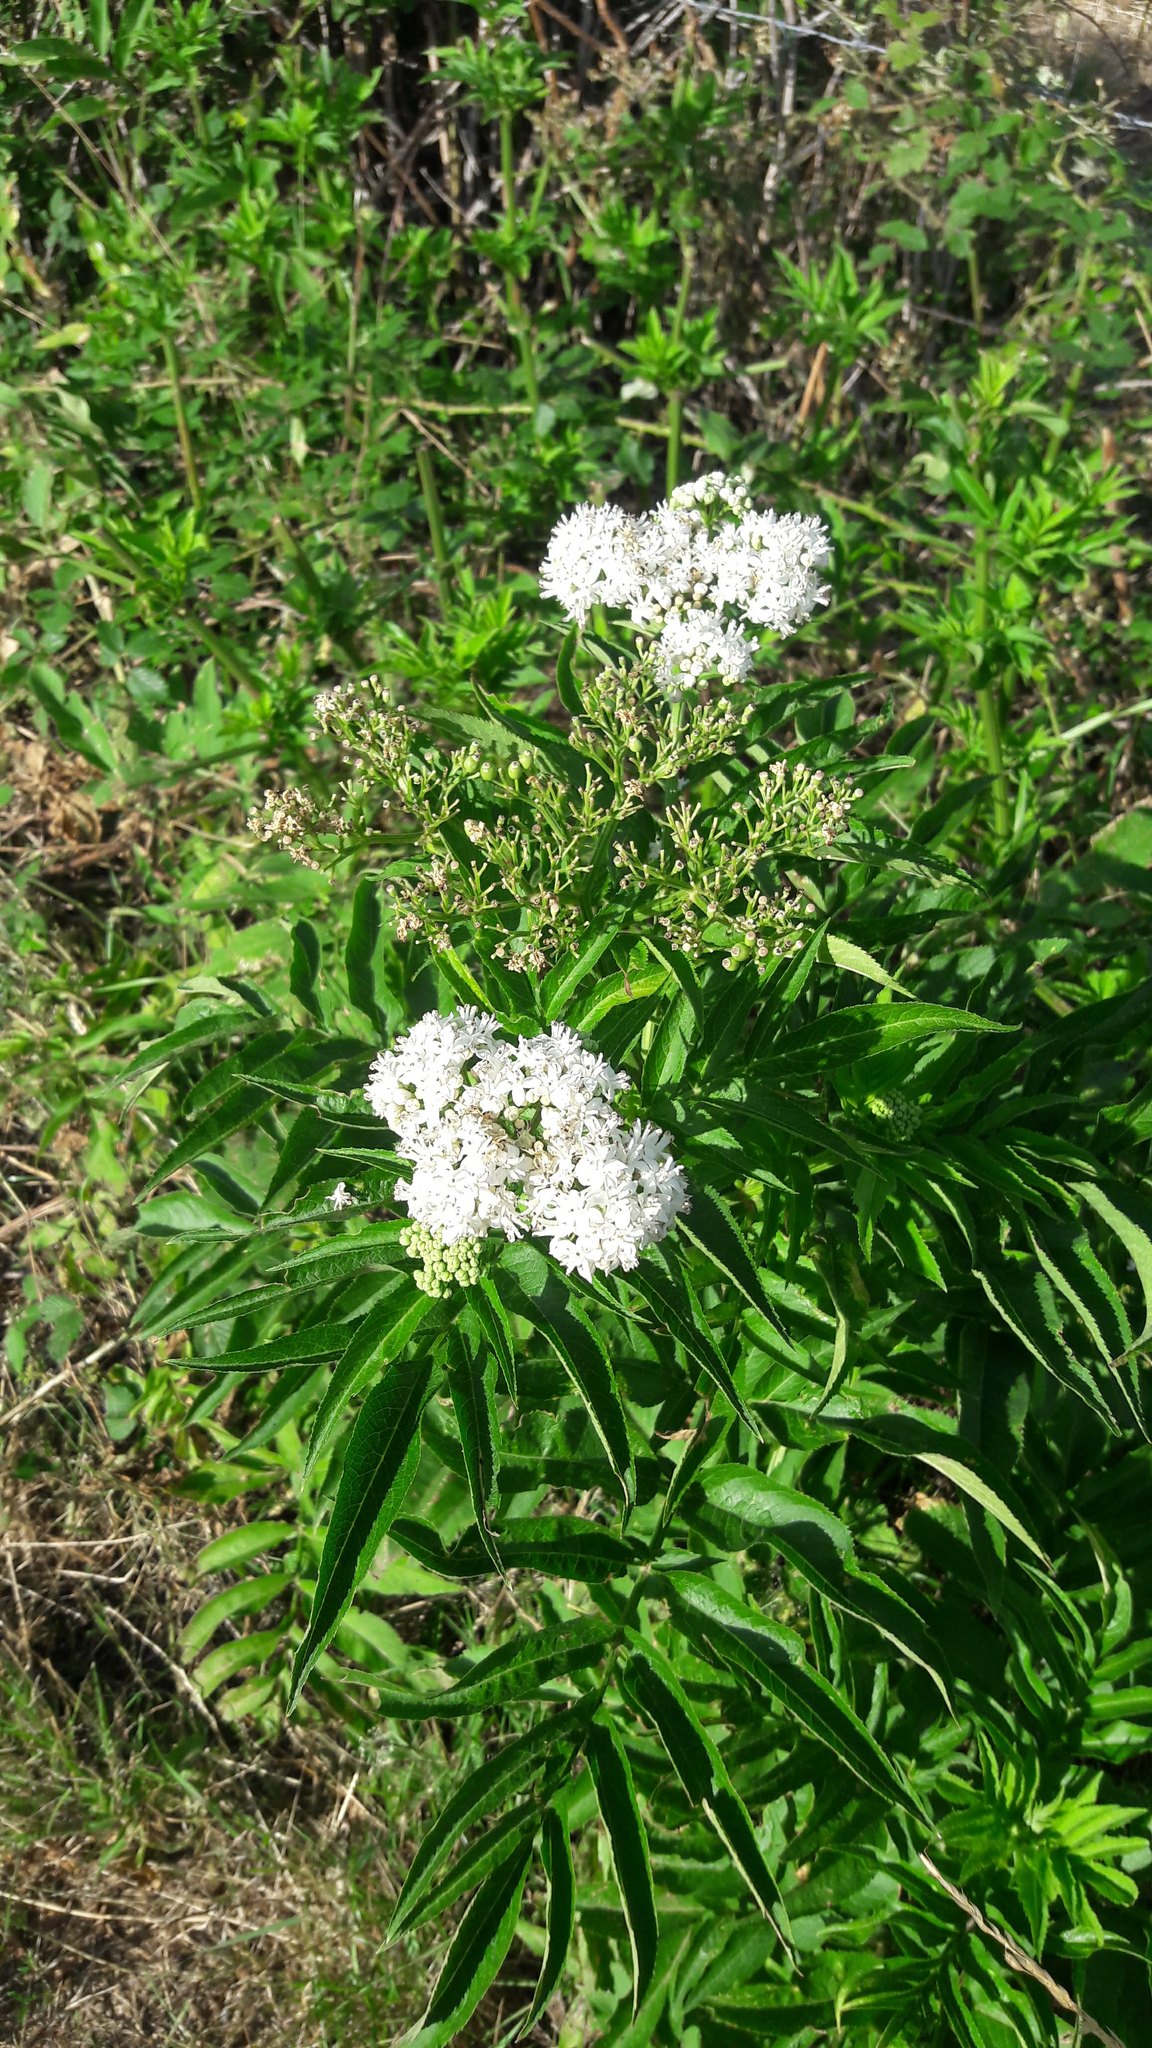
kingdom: Plantae
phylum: Tracheophyta
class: Magnoliopsida
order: Dipsacales
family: Viburnaceae
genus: Sambucus
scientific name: Sambucus ebulus
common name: Dwarf elder
